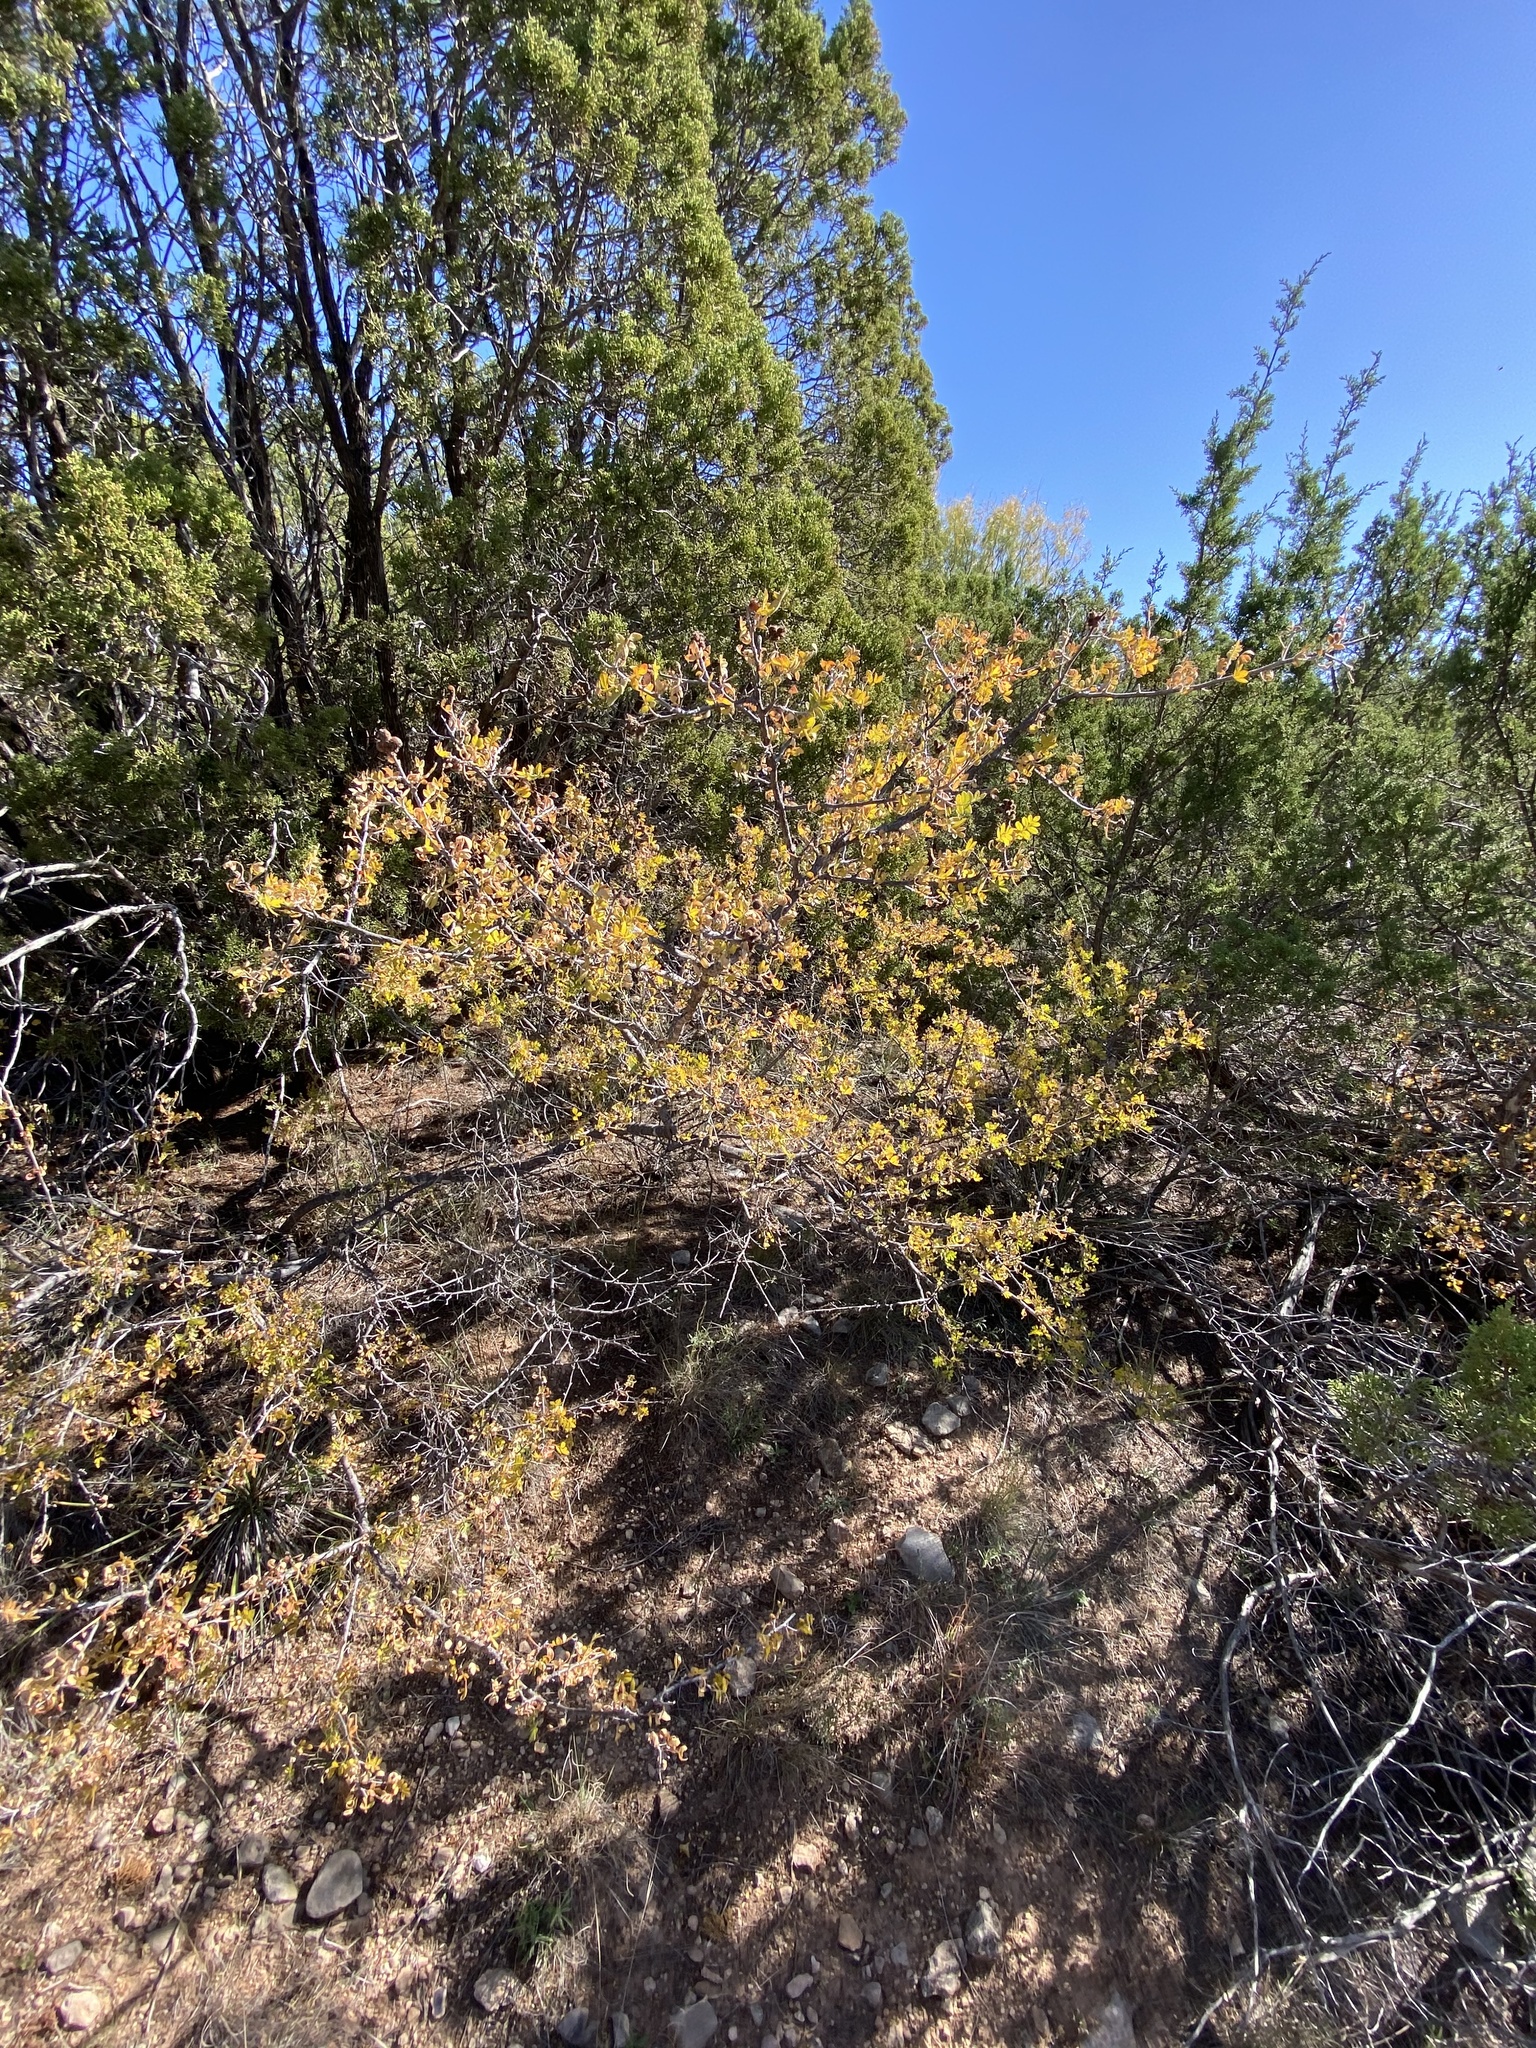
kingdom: Plantae
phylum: Tracheophyta
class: Magnoliopsida
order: Sapindales
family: Anacardiaceae
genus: Rhus
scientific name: Rhus microphylla
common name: Desert sumac
